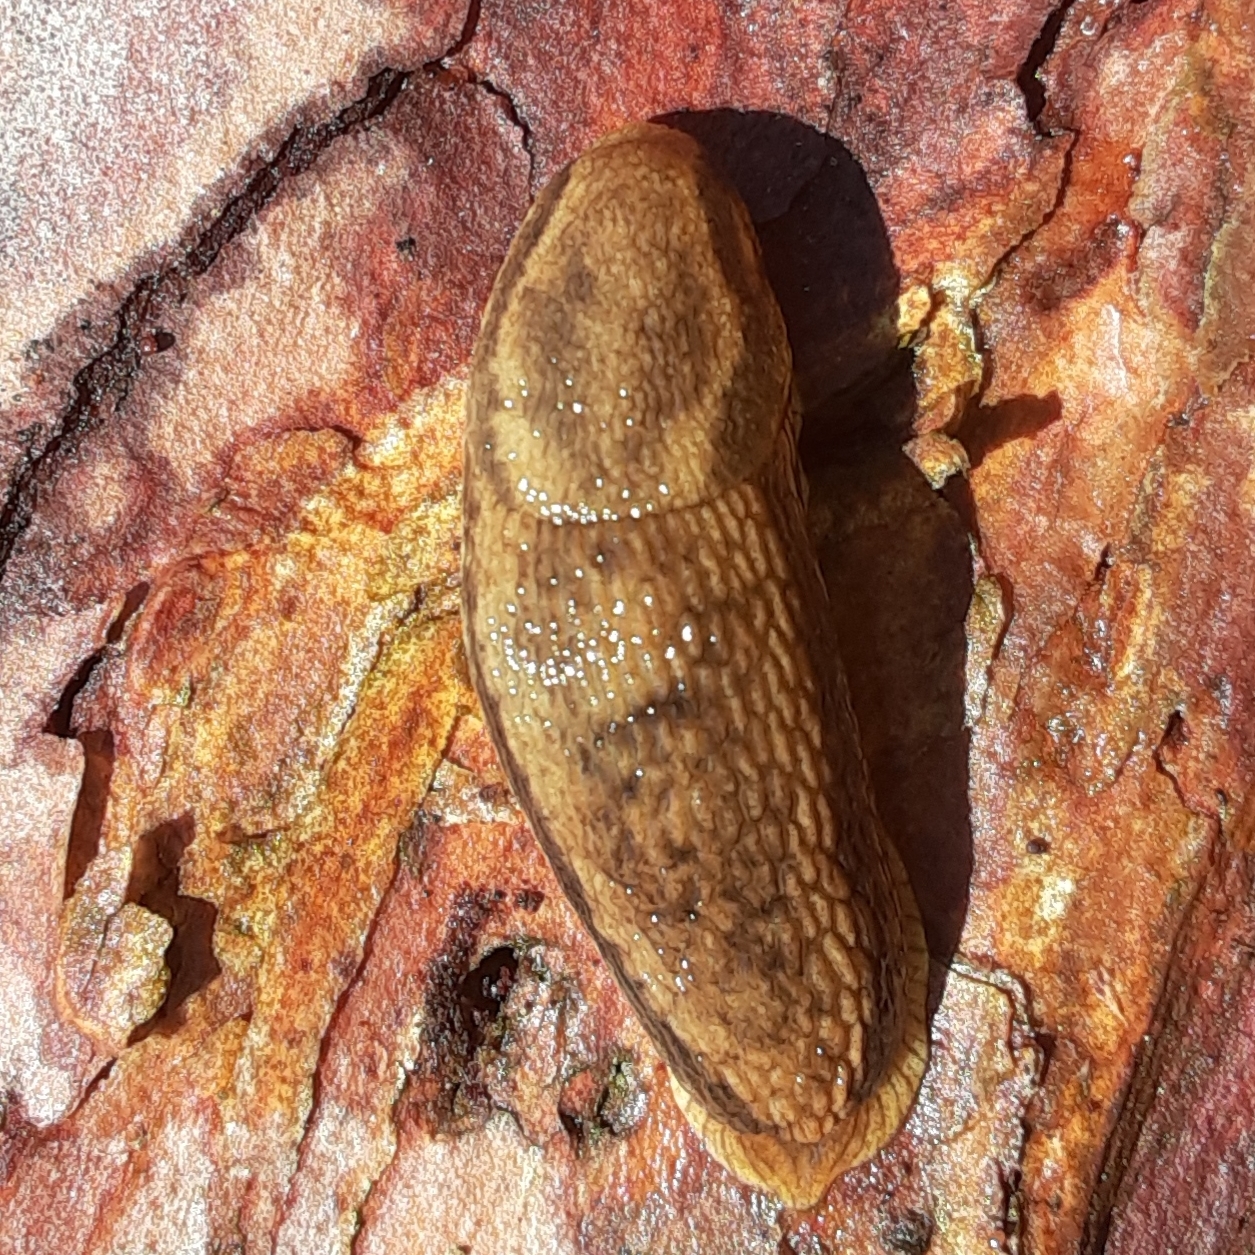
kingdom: Animalia
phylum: Mollusca
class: Gastropoda
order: Stylommatophora
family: Arionidae
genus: Arion
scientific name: Arion subfuscus
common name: Dusky arion
